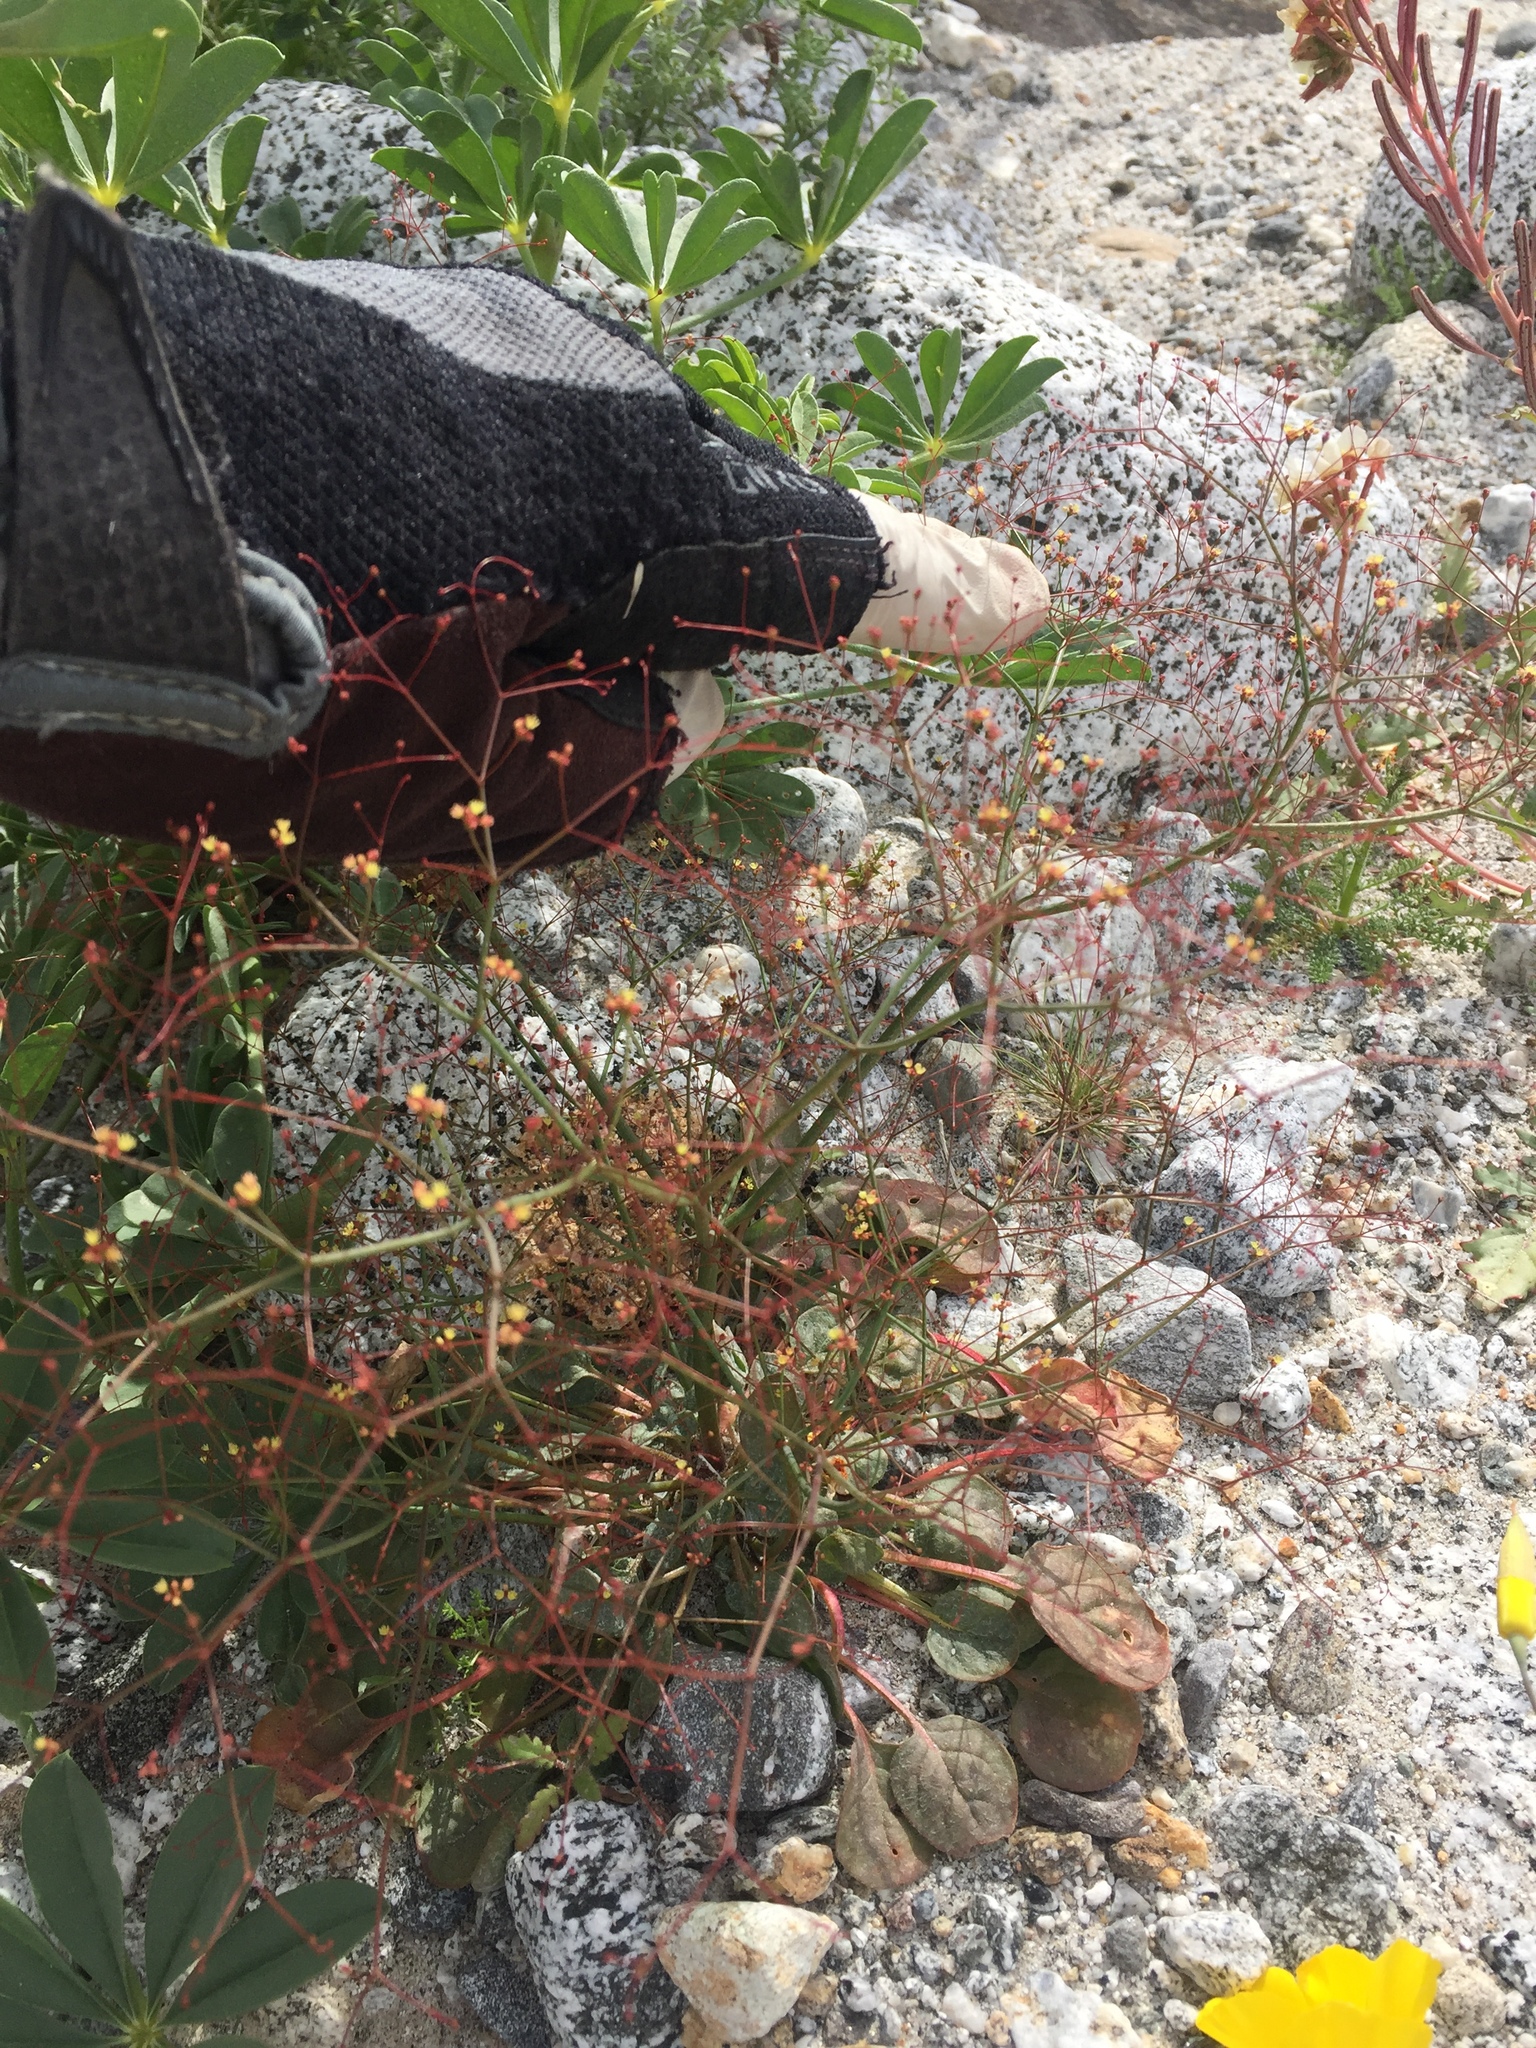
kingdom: Plantae
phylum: Tracheophyta
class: Magnoliopsida
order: Caryophyllales
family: Polygonaceae
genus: Eriogonum
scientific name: Eriogonum thomasii
